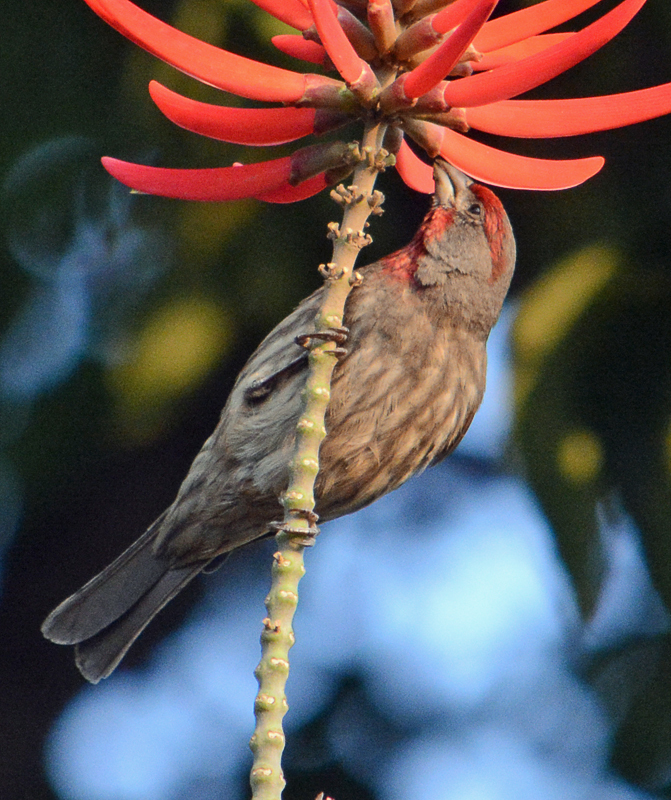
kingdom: Animalia
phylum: Chordata
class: Aves
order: Passeriformes
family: Fringillidae
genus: Haemorhous
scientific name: Haemorhous mexicanus
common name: House finch
